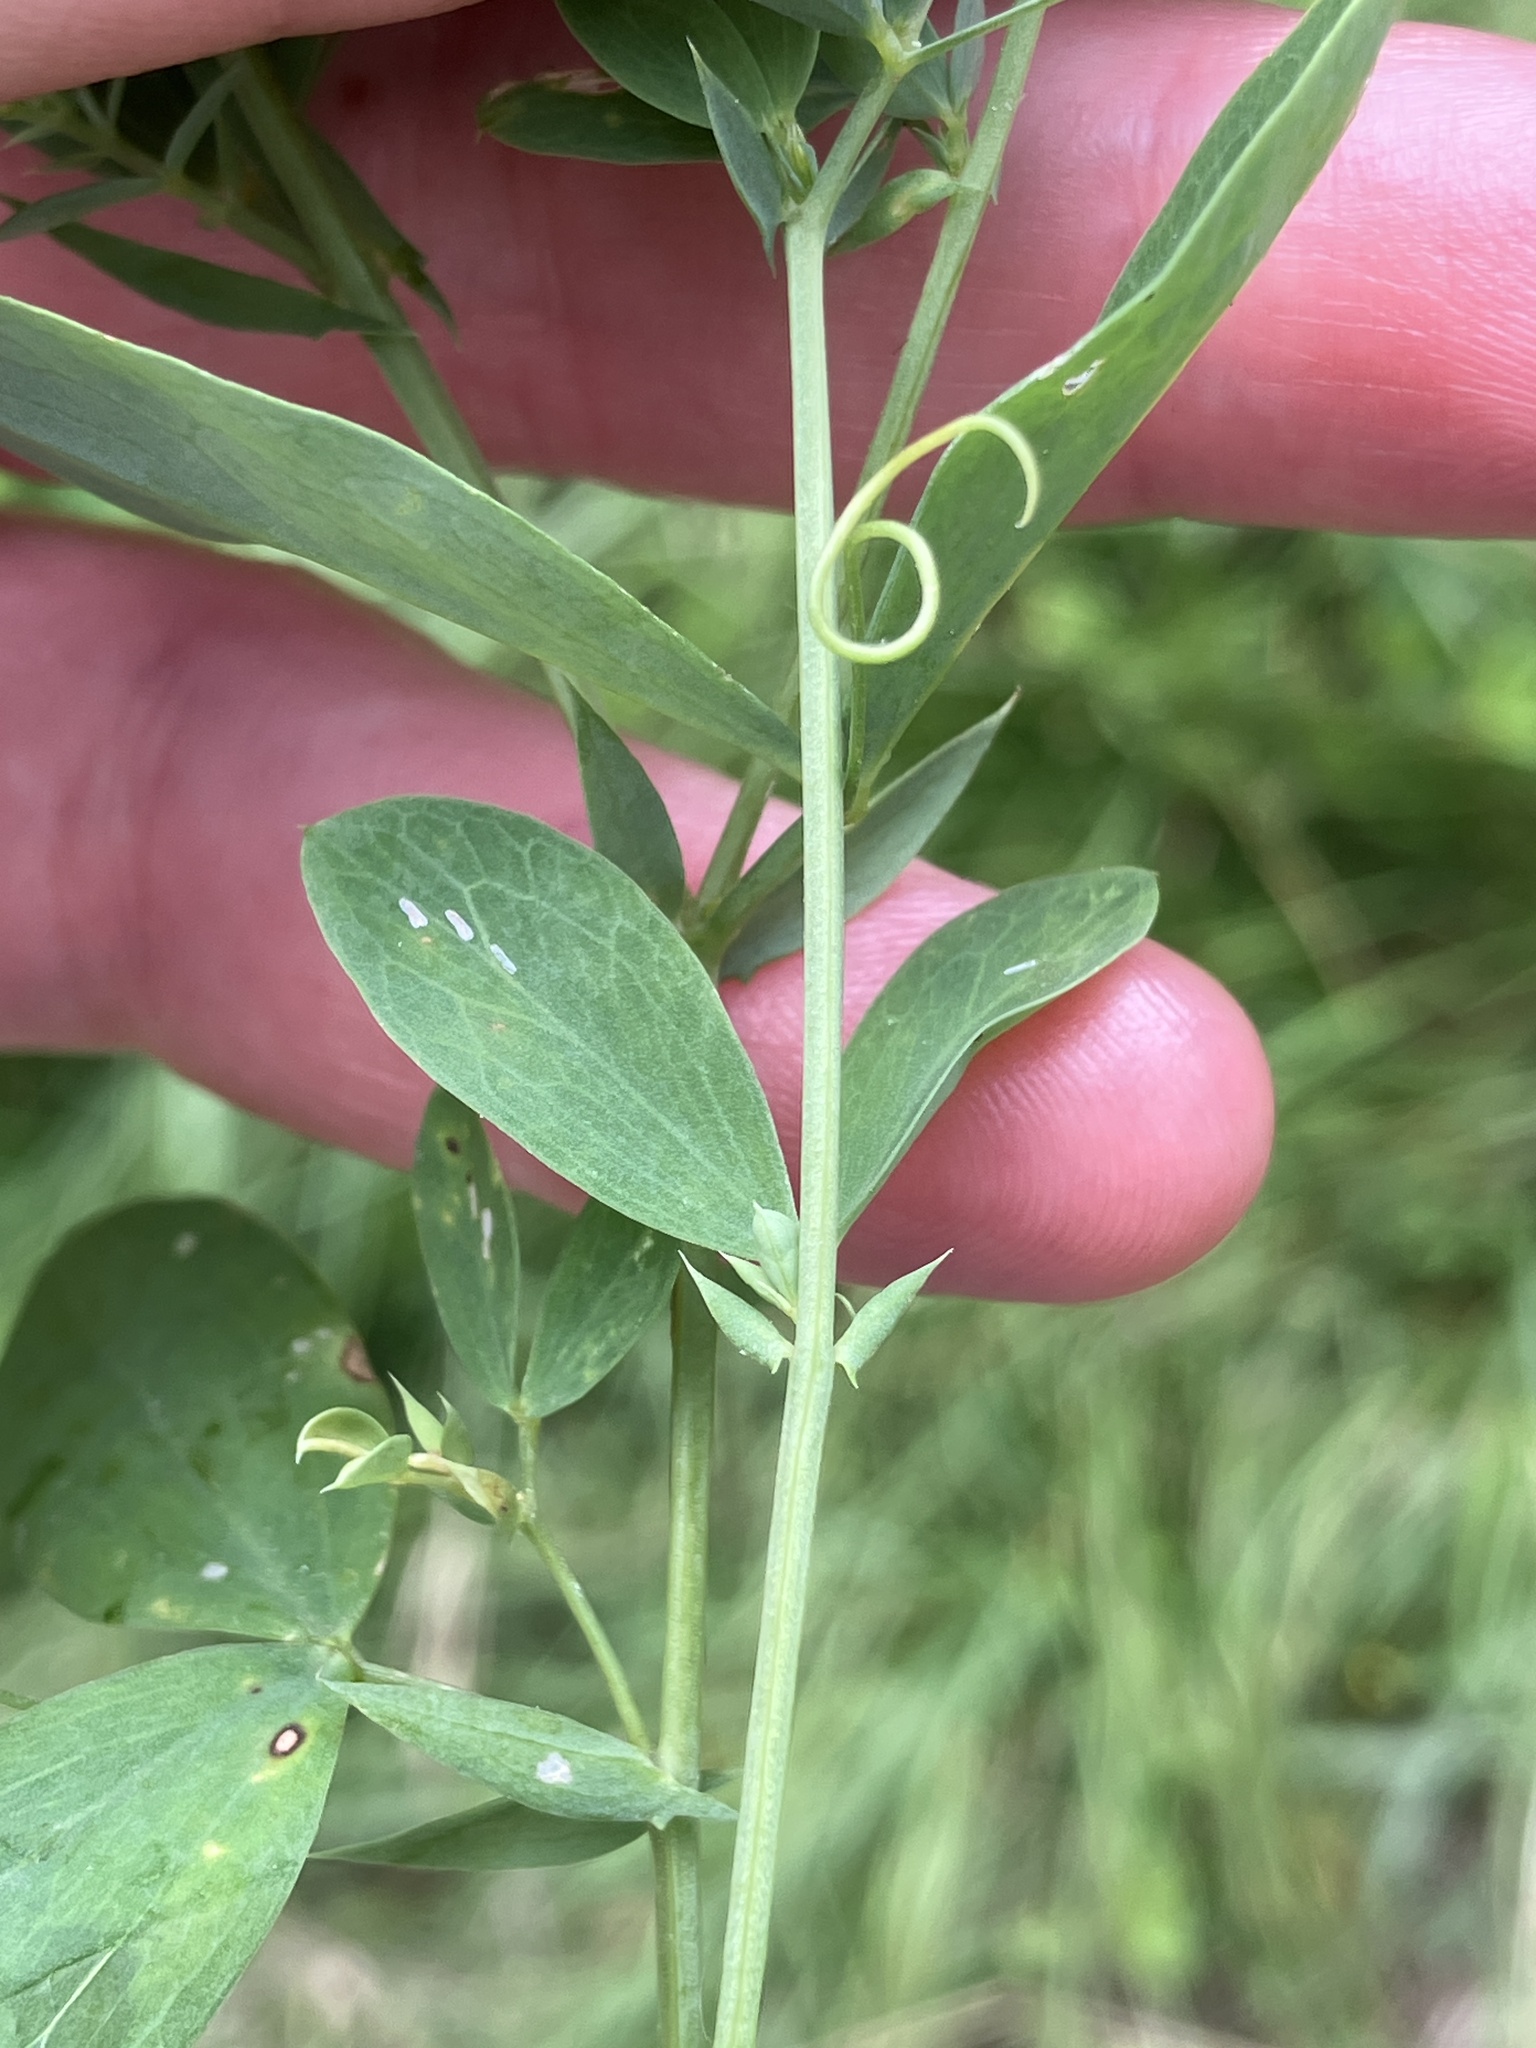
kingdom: Plantae
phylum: Tracheophyta
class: Magnoliopsida
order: Fabales
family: Fabaceae
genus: Lathyrus
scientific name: Lathyrus tuberosus
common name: Tuberous pea
